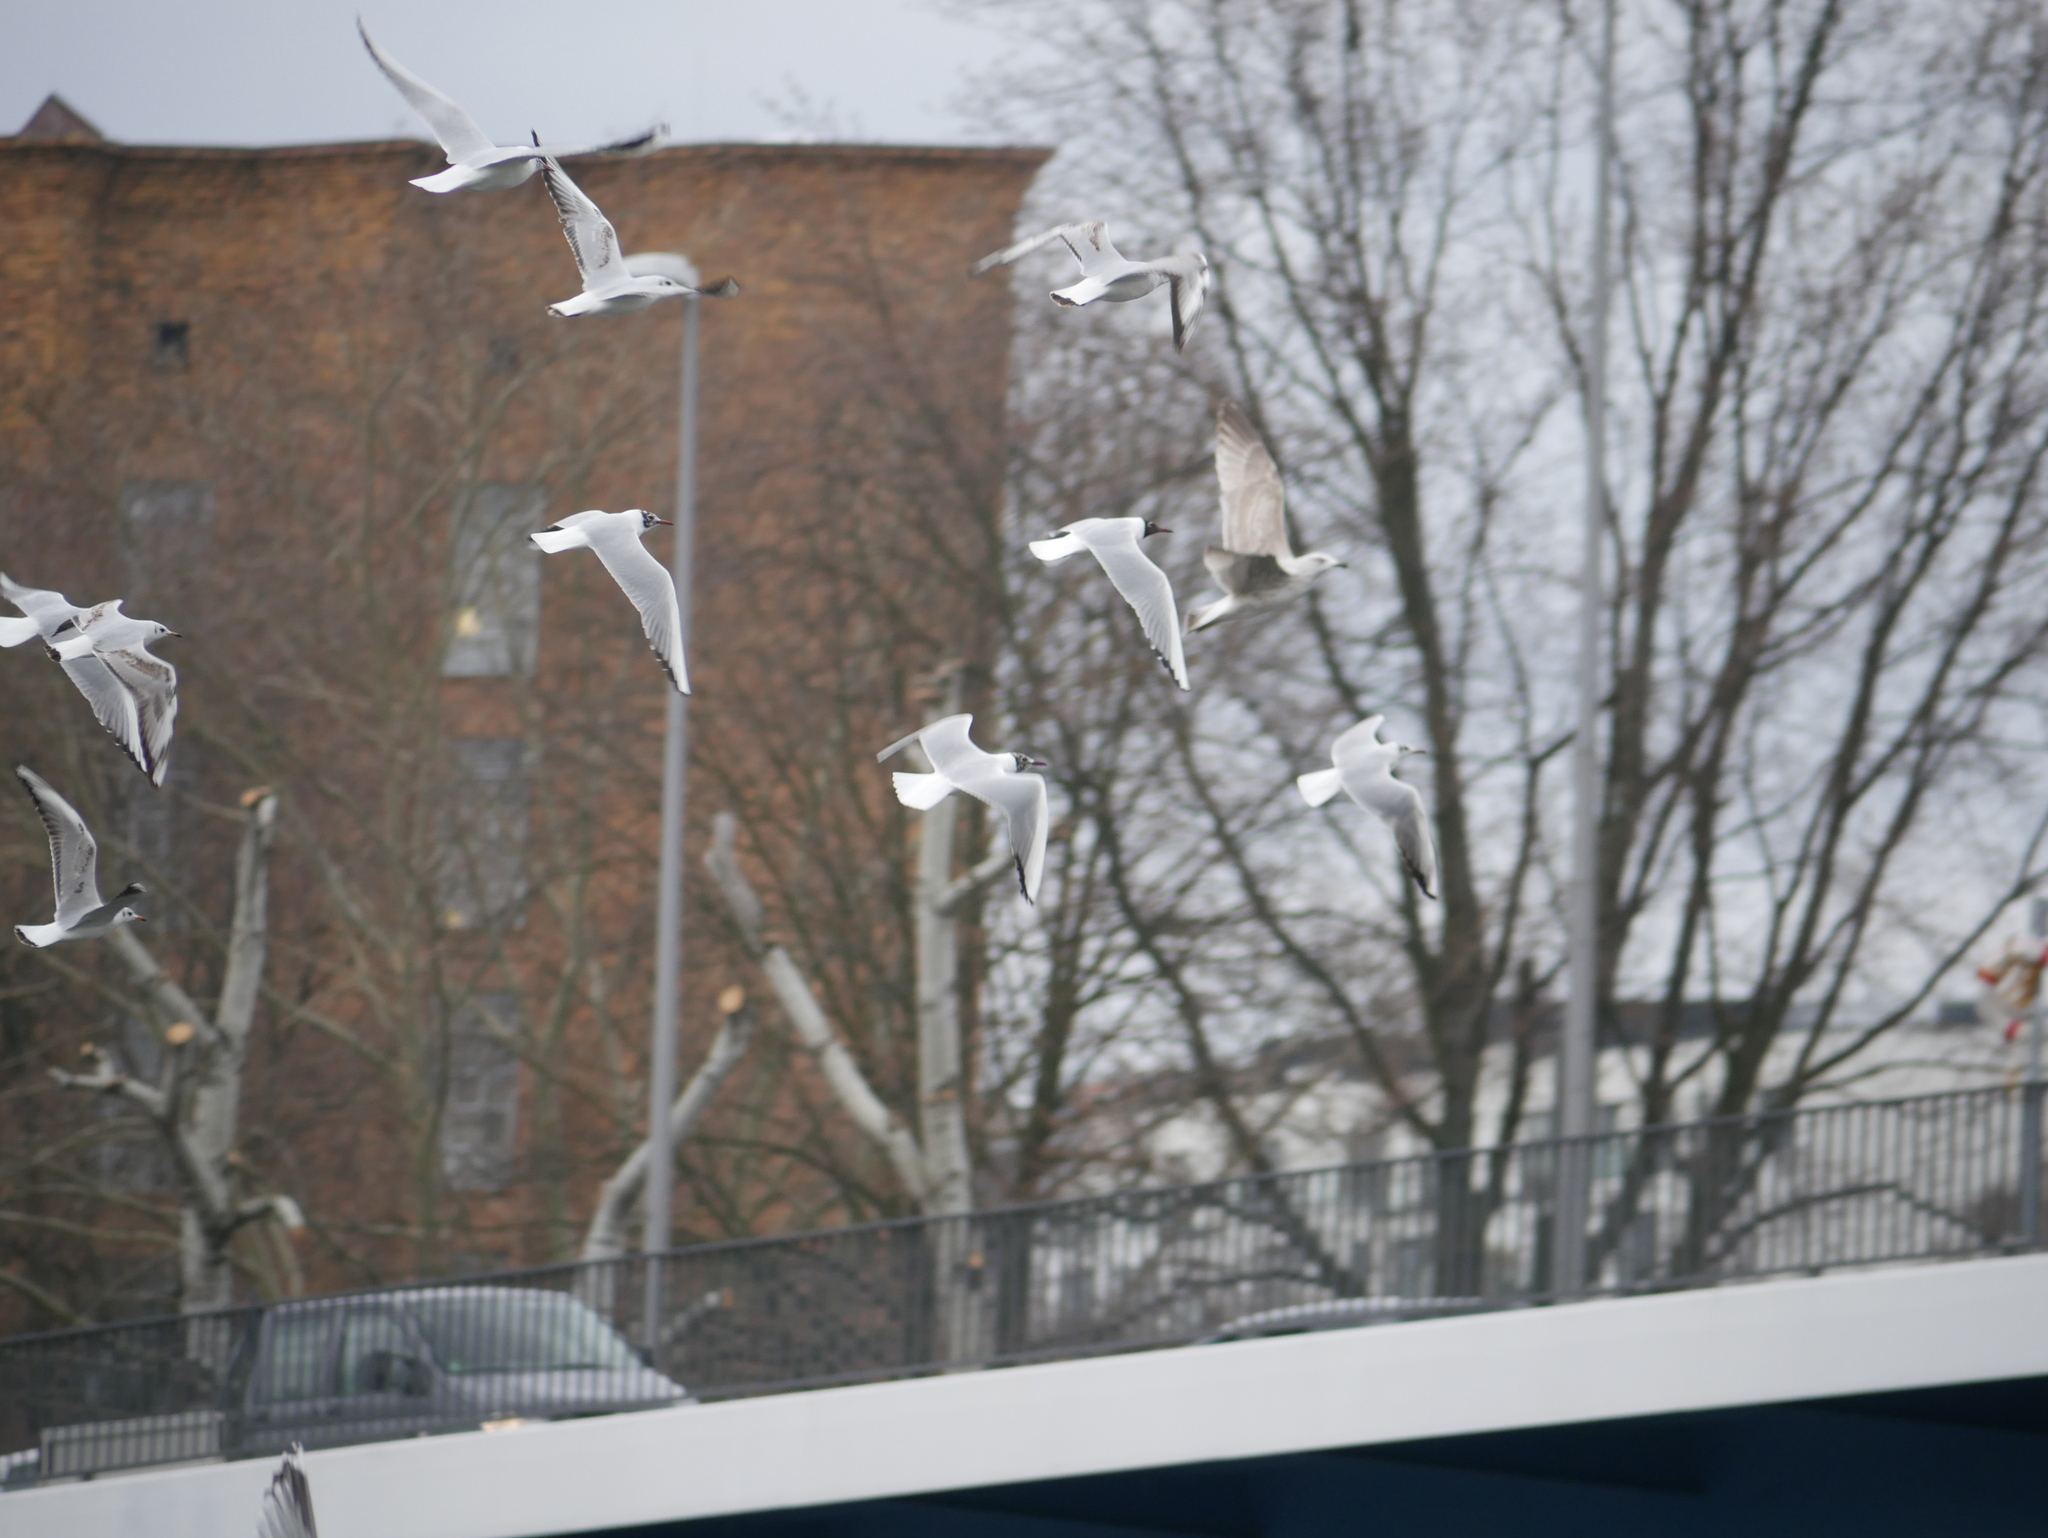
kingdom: Animalia
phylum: Chordata
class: Aves
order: Charadriiformes
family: Laridae
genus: Chroicocephalus
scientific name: Chroicocephalus ridibundus
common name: Black-headed gull
